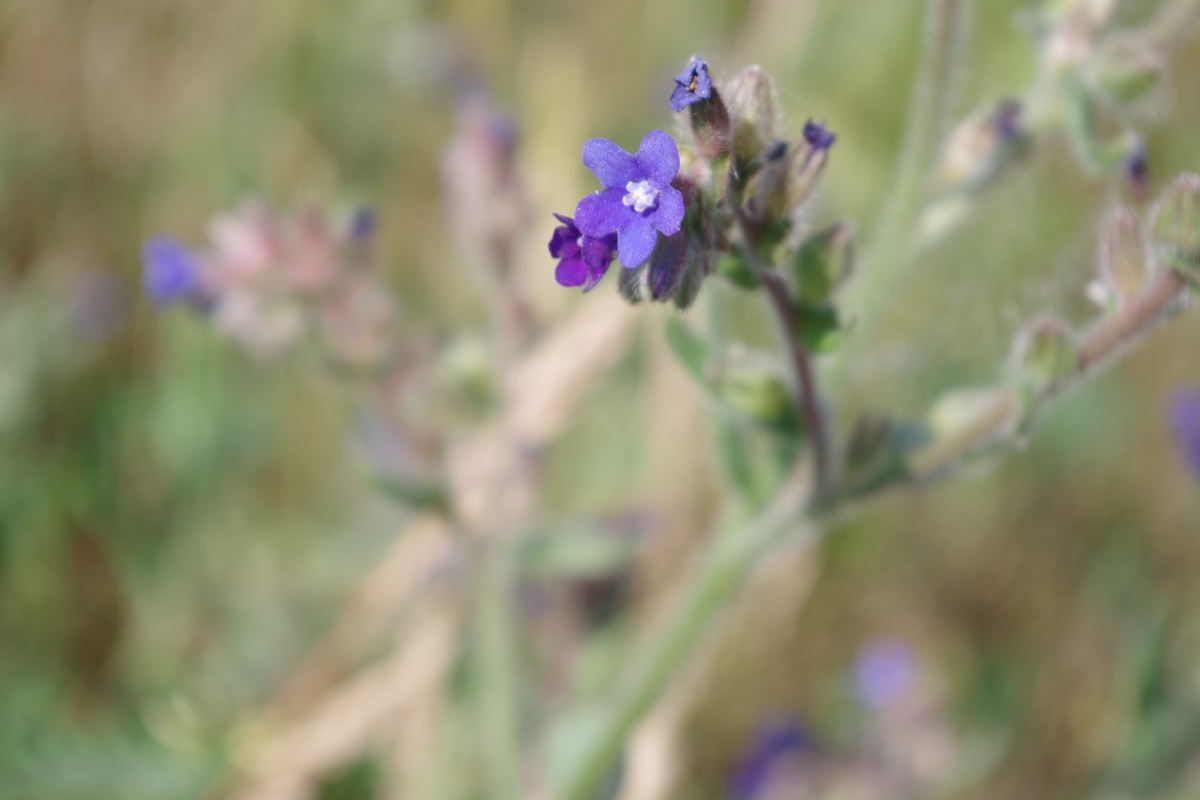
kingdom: Plantae
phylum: Tracheophyta
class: Magnoliopsida
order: Boraginales
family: Boraginaceae
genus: Anchusa
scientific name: Anchusa officinalis
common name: Alkanet
